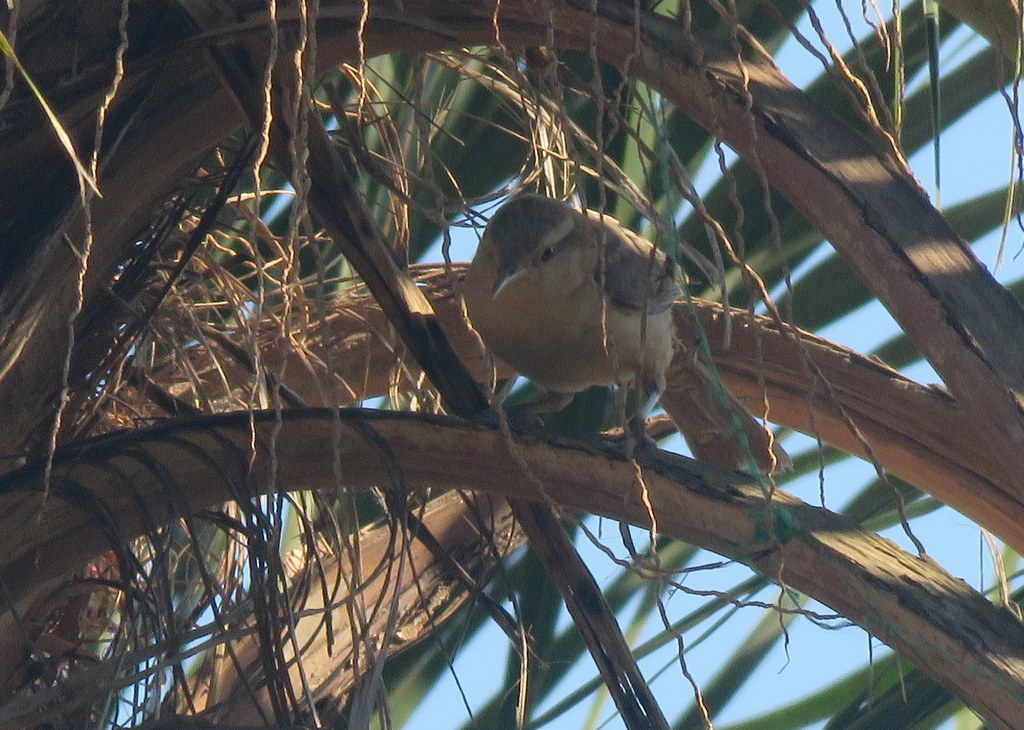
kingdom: Animalia
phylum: Chordata
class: Aves
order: Passeriformes
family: Troglodytidae
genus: Campylorhynchus
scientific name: Campylorhynchus turdinus
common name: Thrush-like wren
